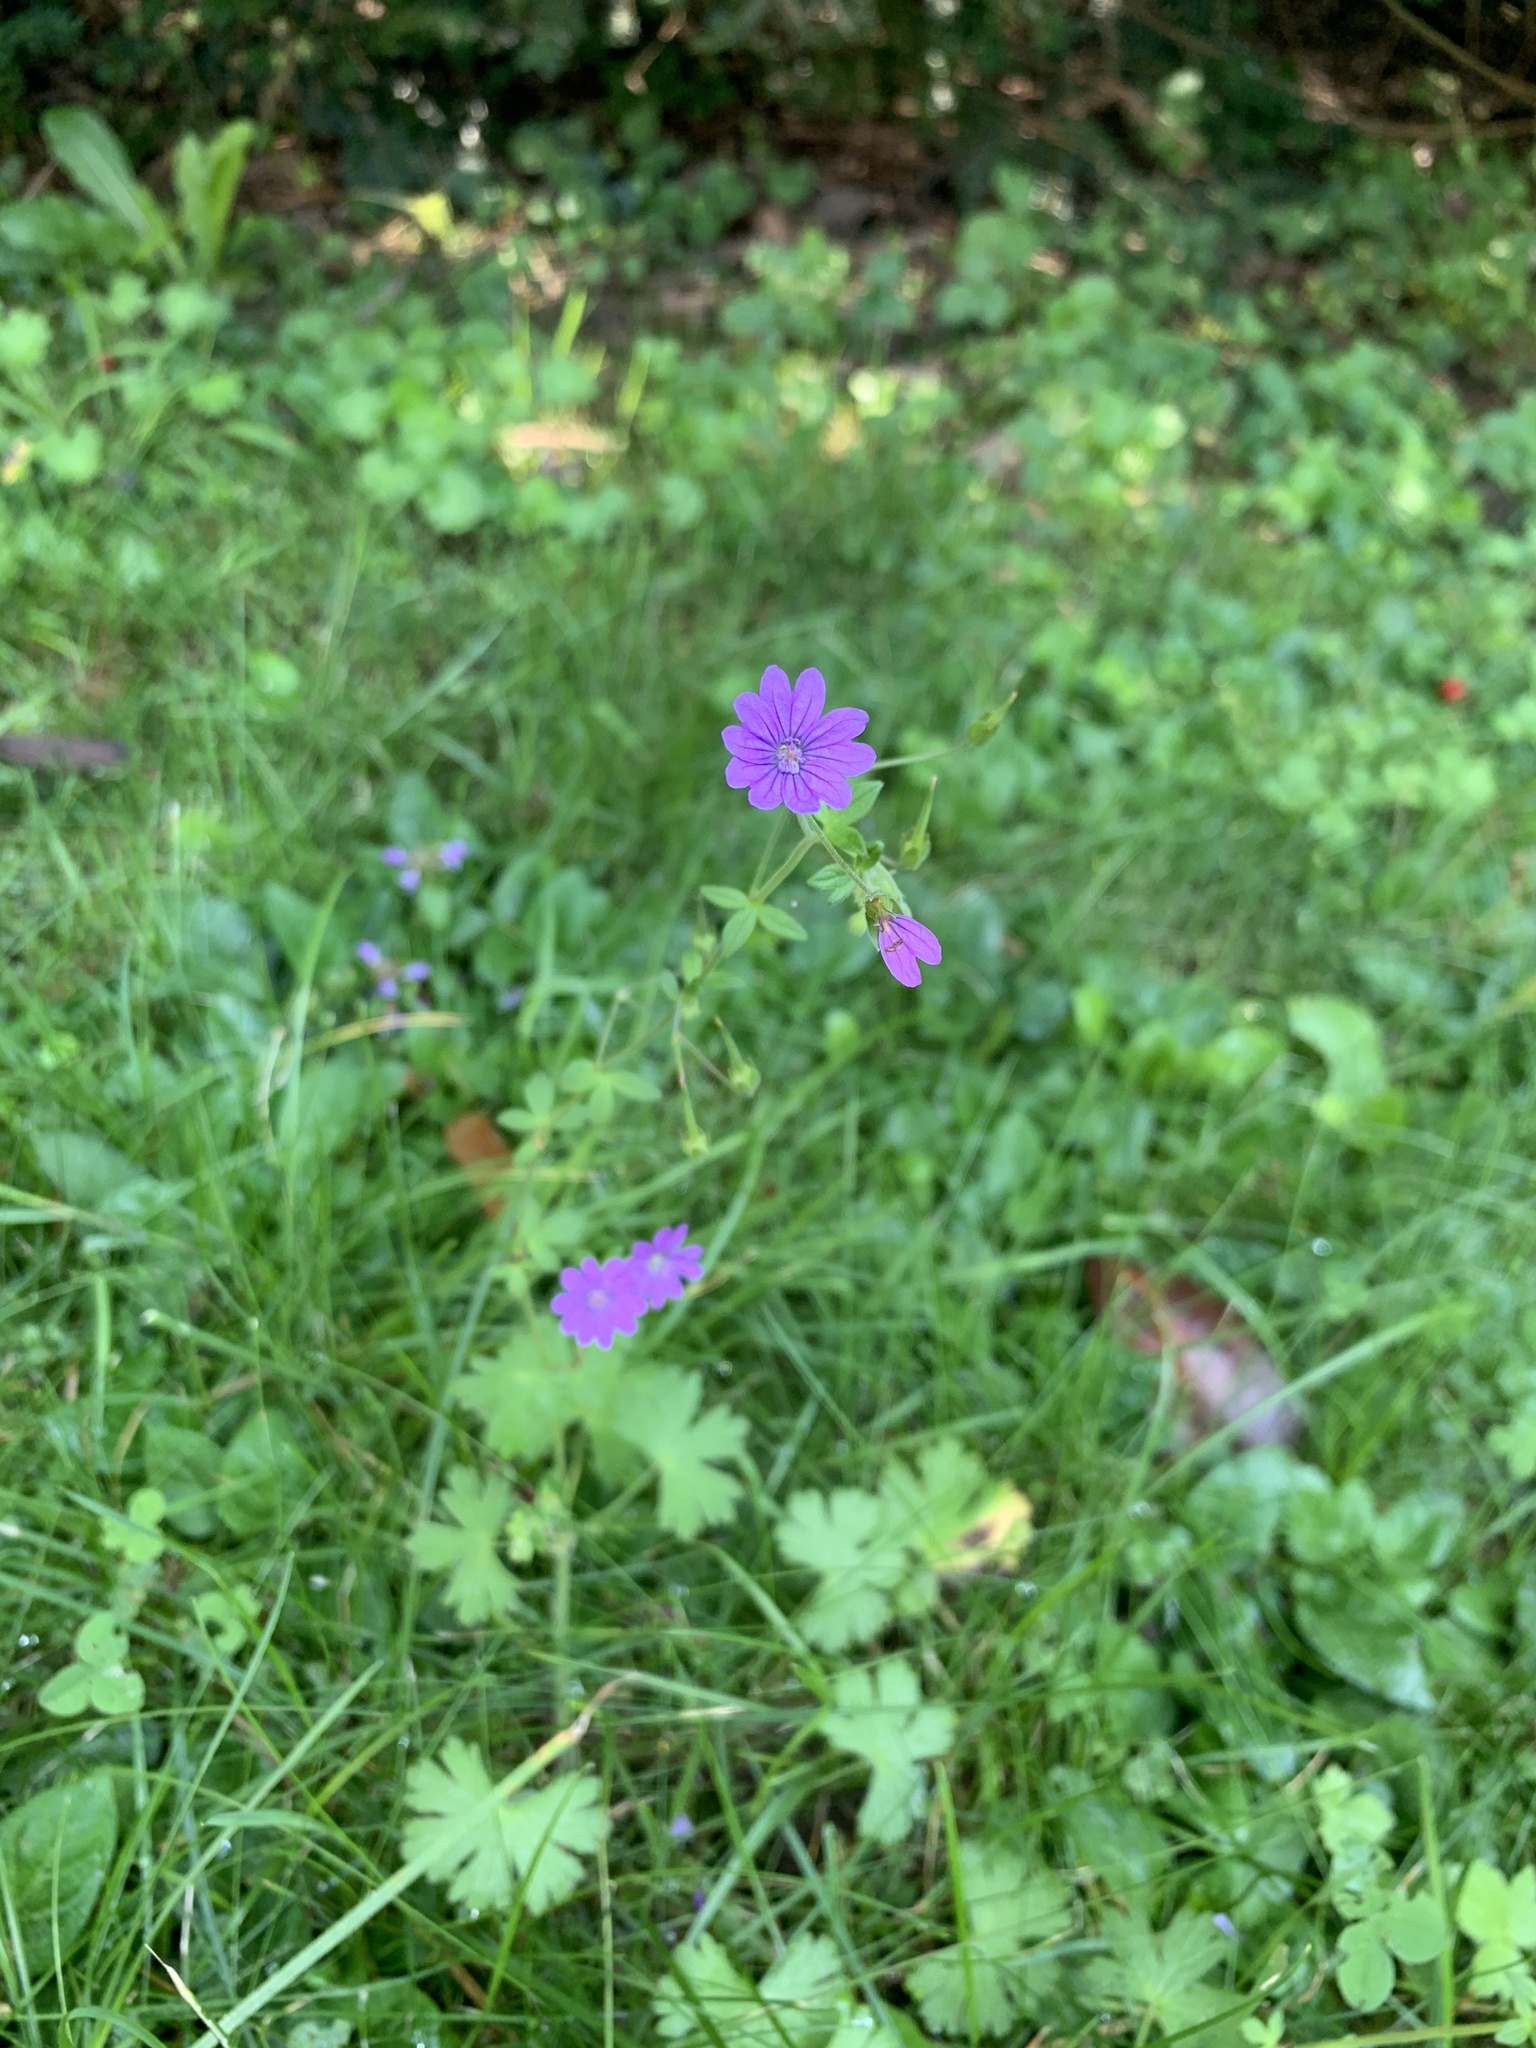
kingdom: Plantae
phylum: Tracheophyta
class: Magnoliopsida
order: Geraniales
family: Geraniaceae
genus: Geranium
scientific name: Geranium pyrenaicum
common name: Hedgerow crane's-bill
